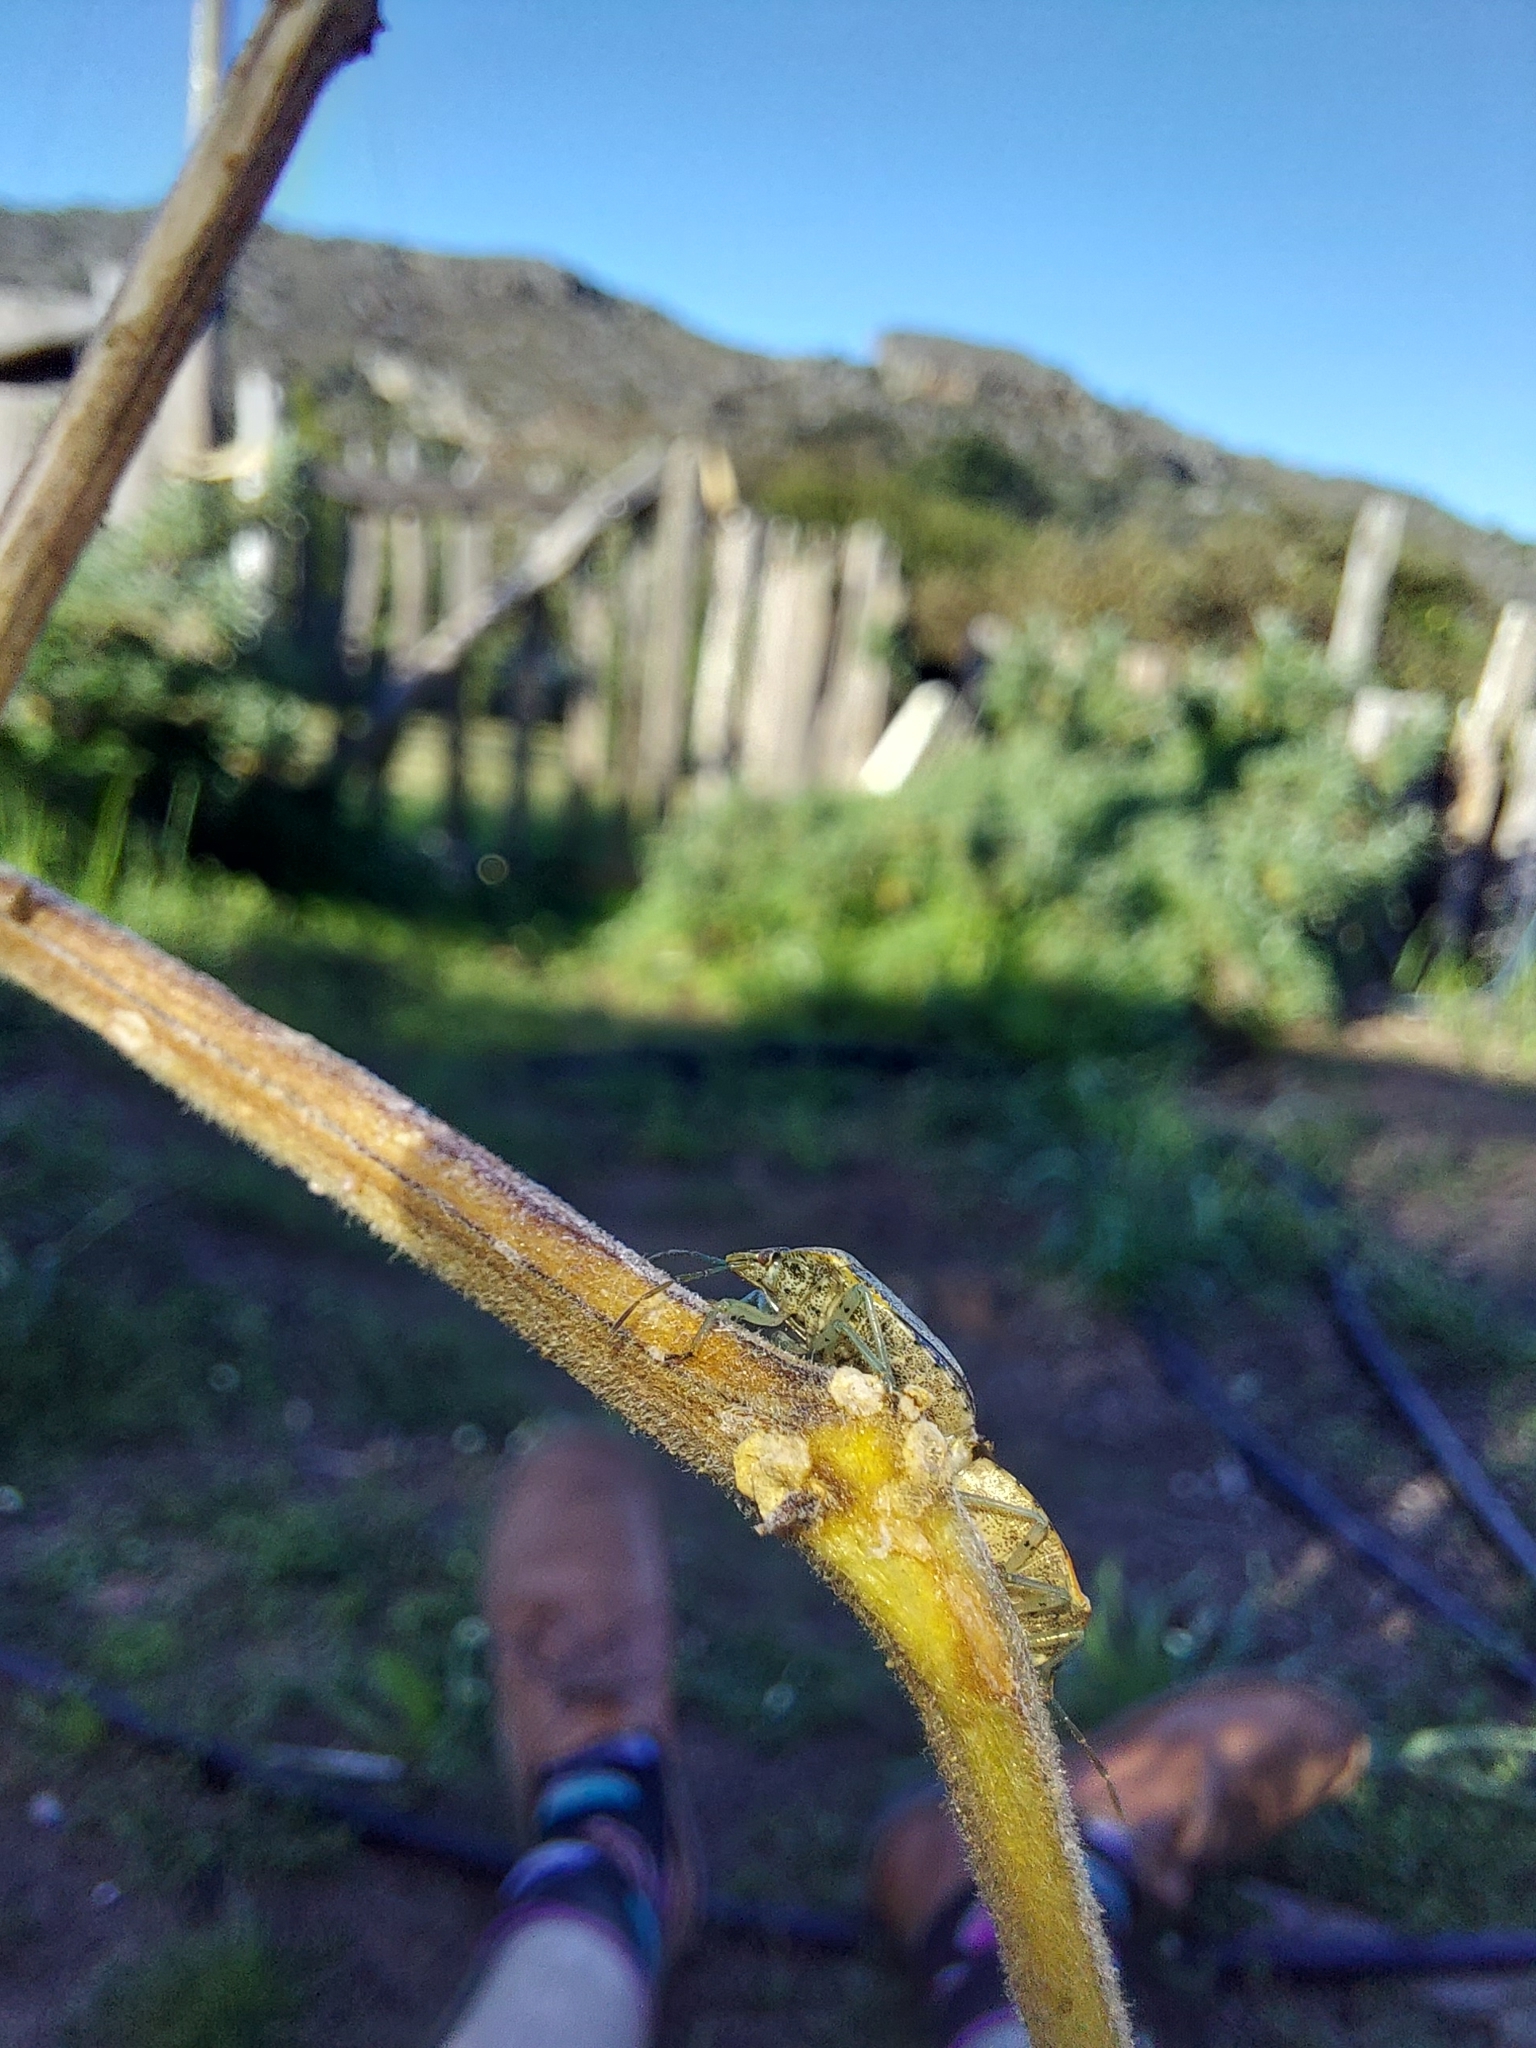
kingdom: Animalia
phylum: Arthropoda
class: Insecta
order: Hemiptera
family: Pentatomidae
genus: Dryadocoris
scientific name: Dryadocoris apicalis
